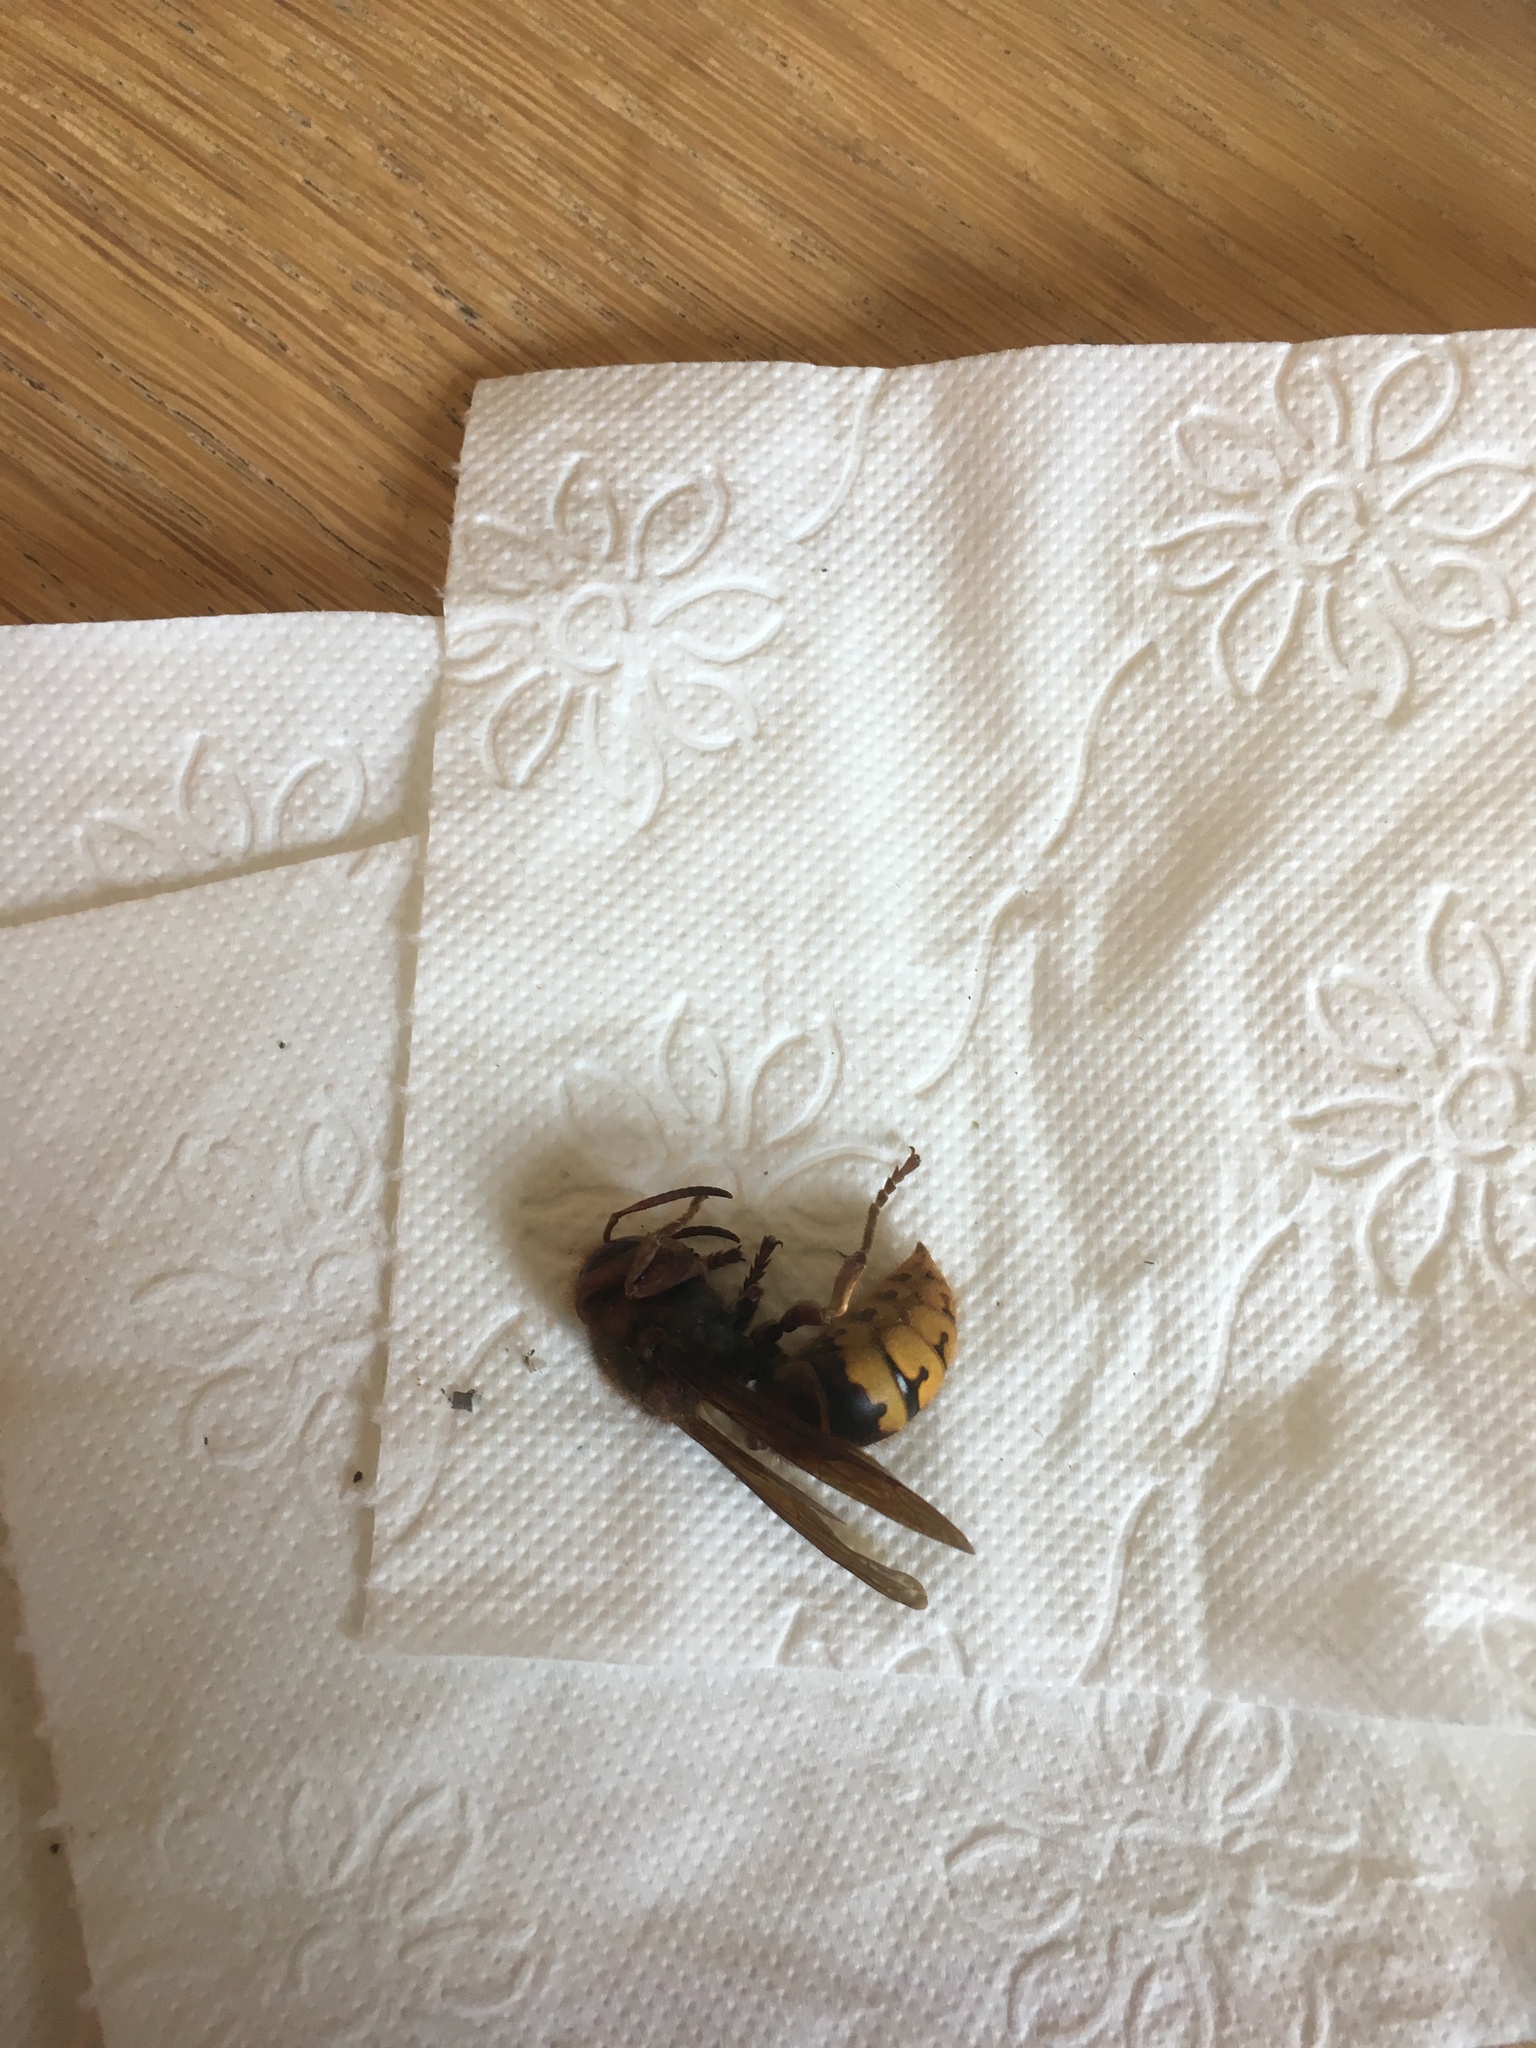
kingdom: Animalia
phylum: Arthropoda
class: Insecta
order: Hymenoptera
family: Vespidae
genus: Vespa
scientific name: Vespa crabro
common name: Hornet
